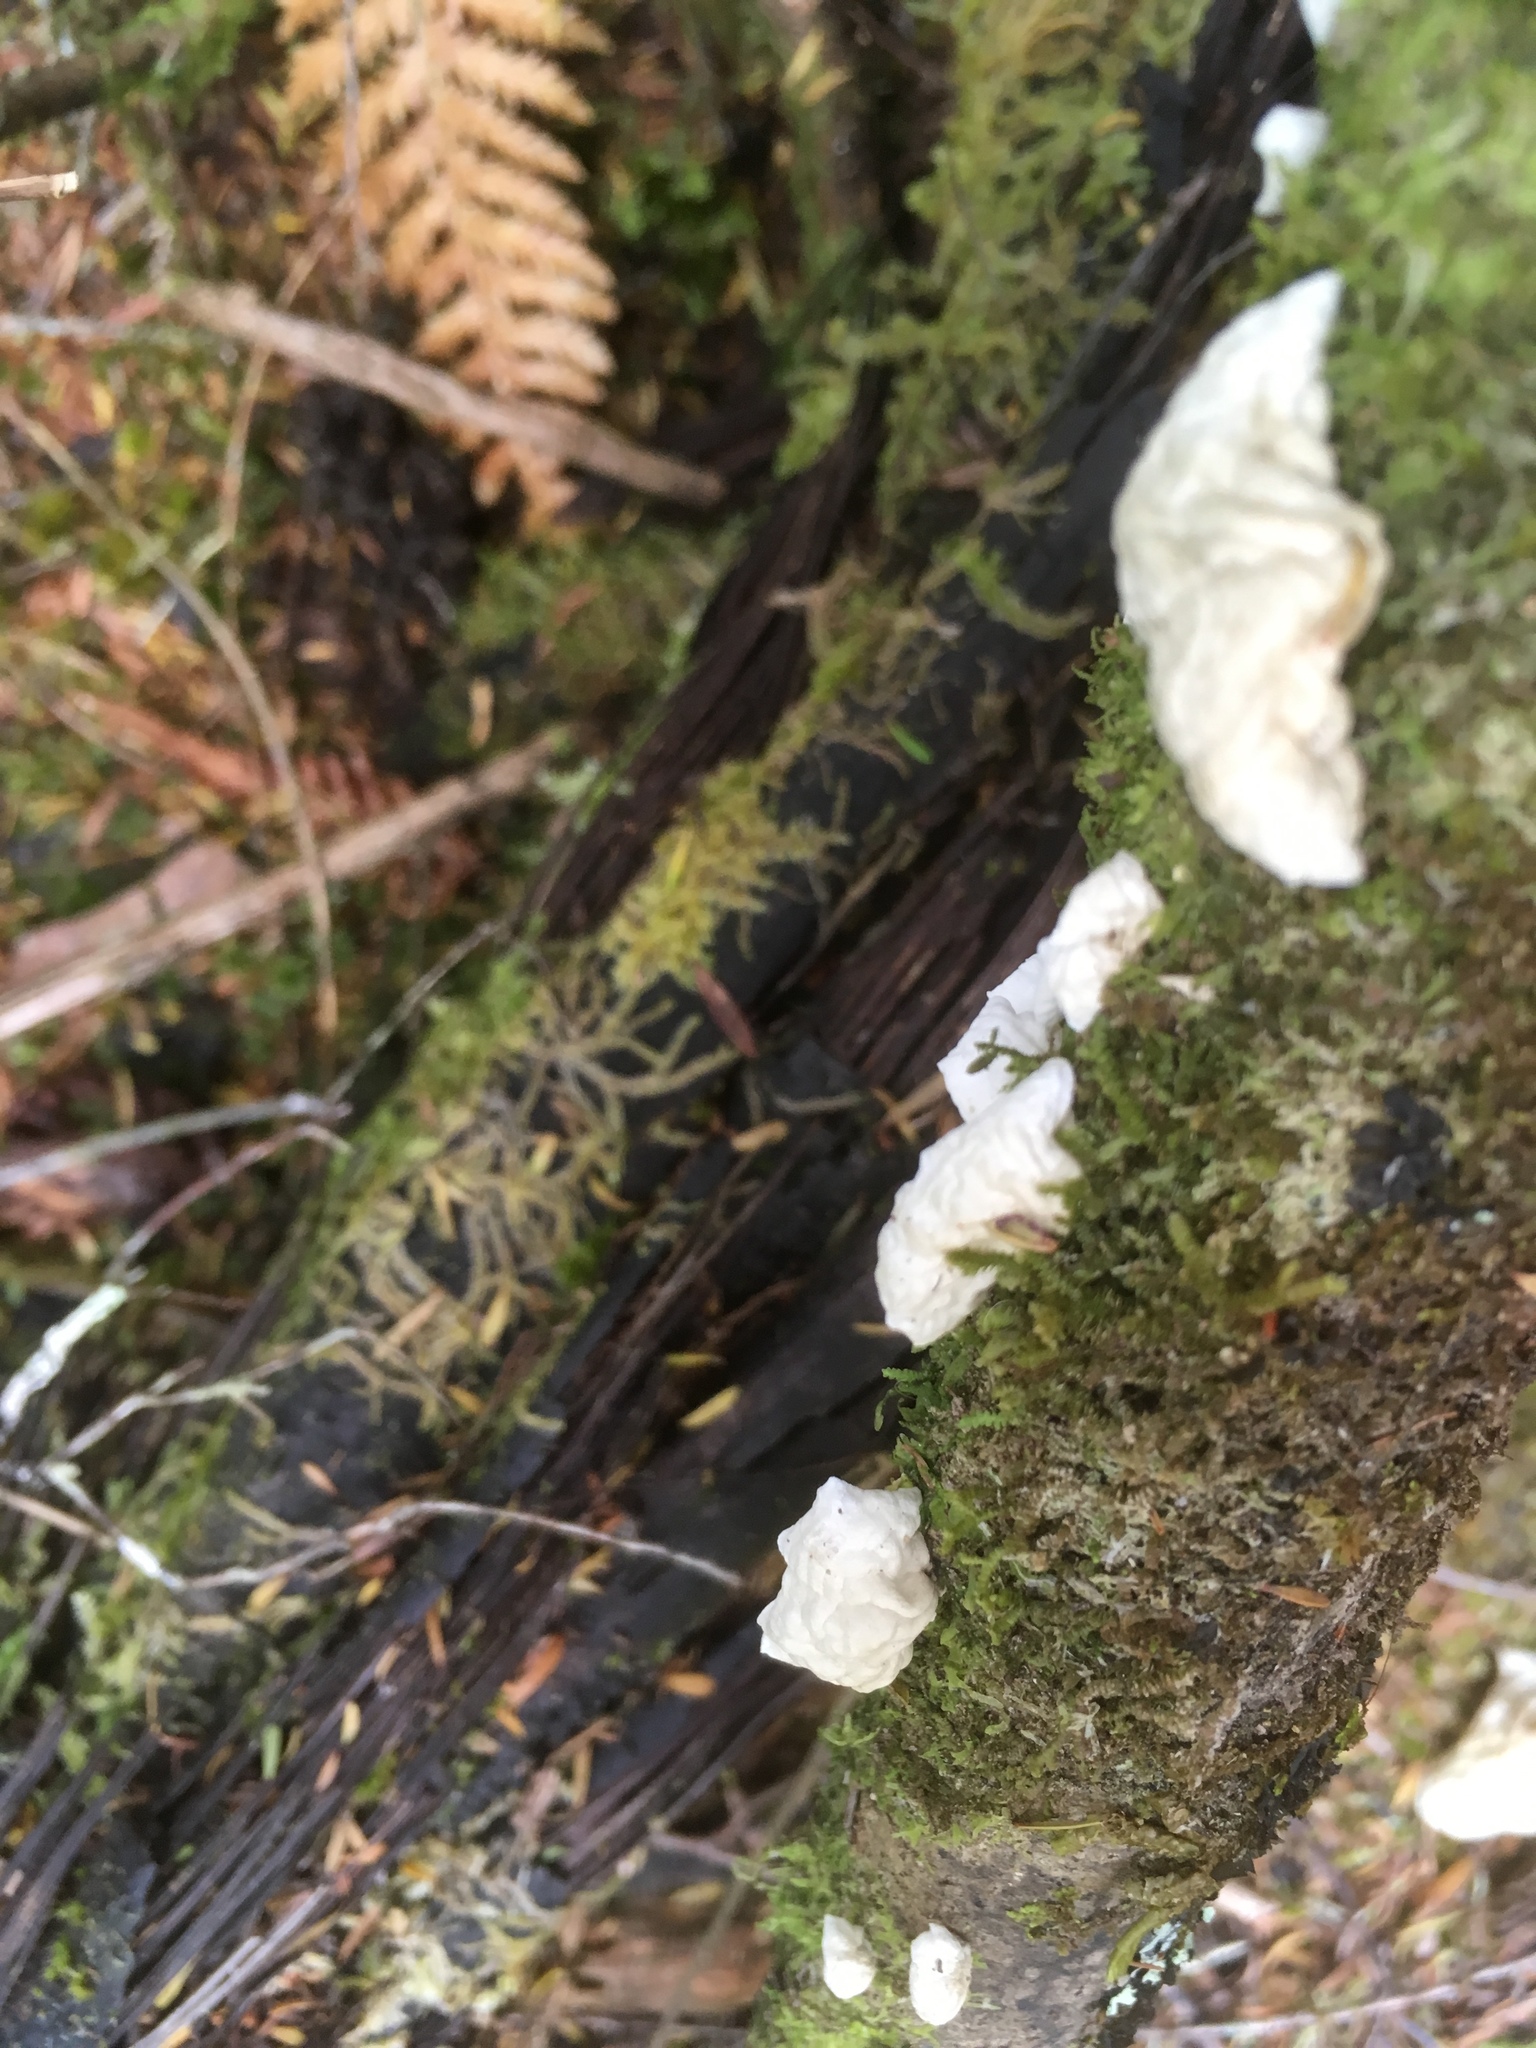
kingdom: Fungi
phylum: Basidiomycota
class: Agaricomycetes
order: Agaricales
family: Marasmiaceae
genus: Campanella
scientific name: Campanella tristis
